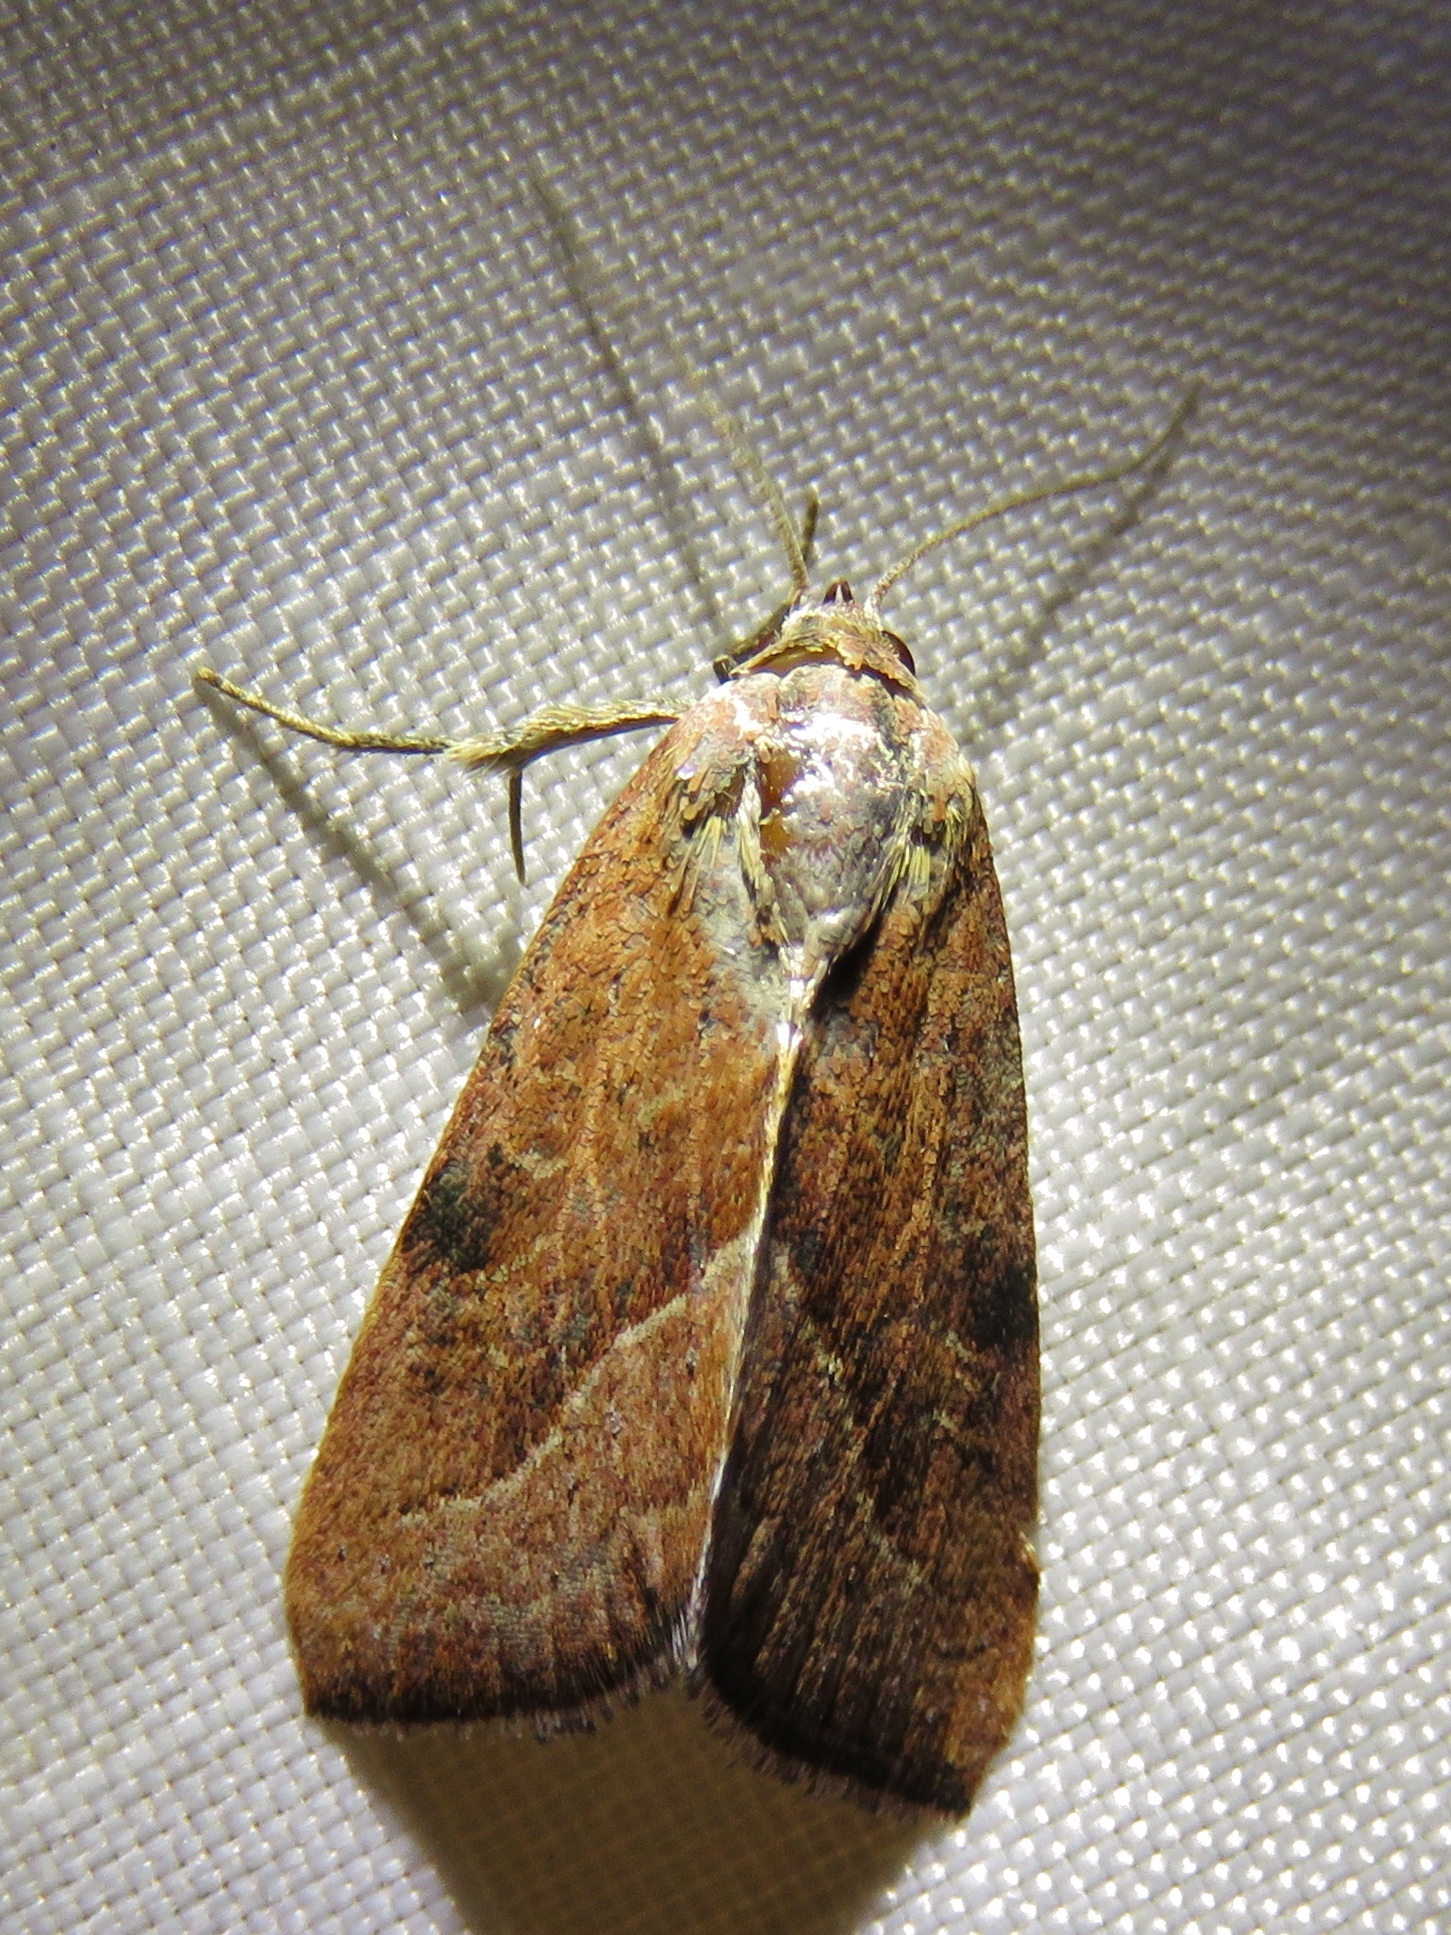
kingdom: Animalia
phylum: Arthropoda
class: Insecta
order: Lepidoptera
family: Noctuidae
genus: Galgula
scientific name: Galgula partita
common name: Wedgeling
